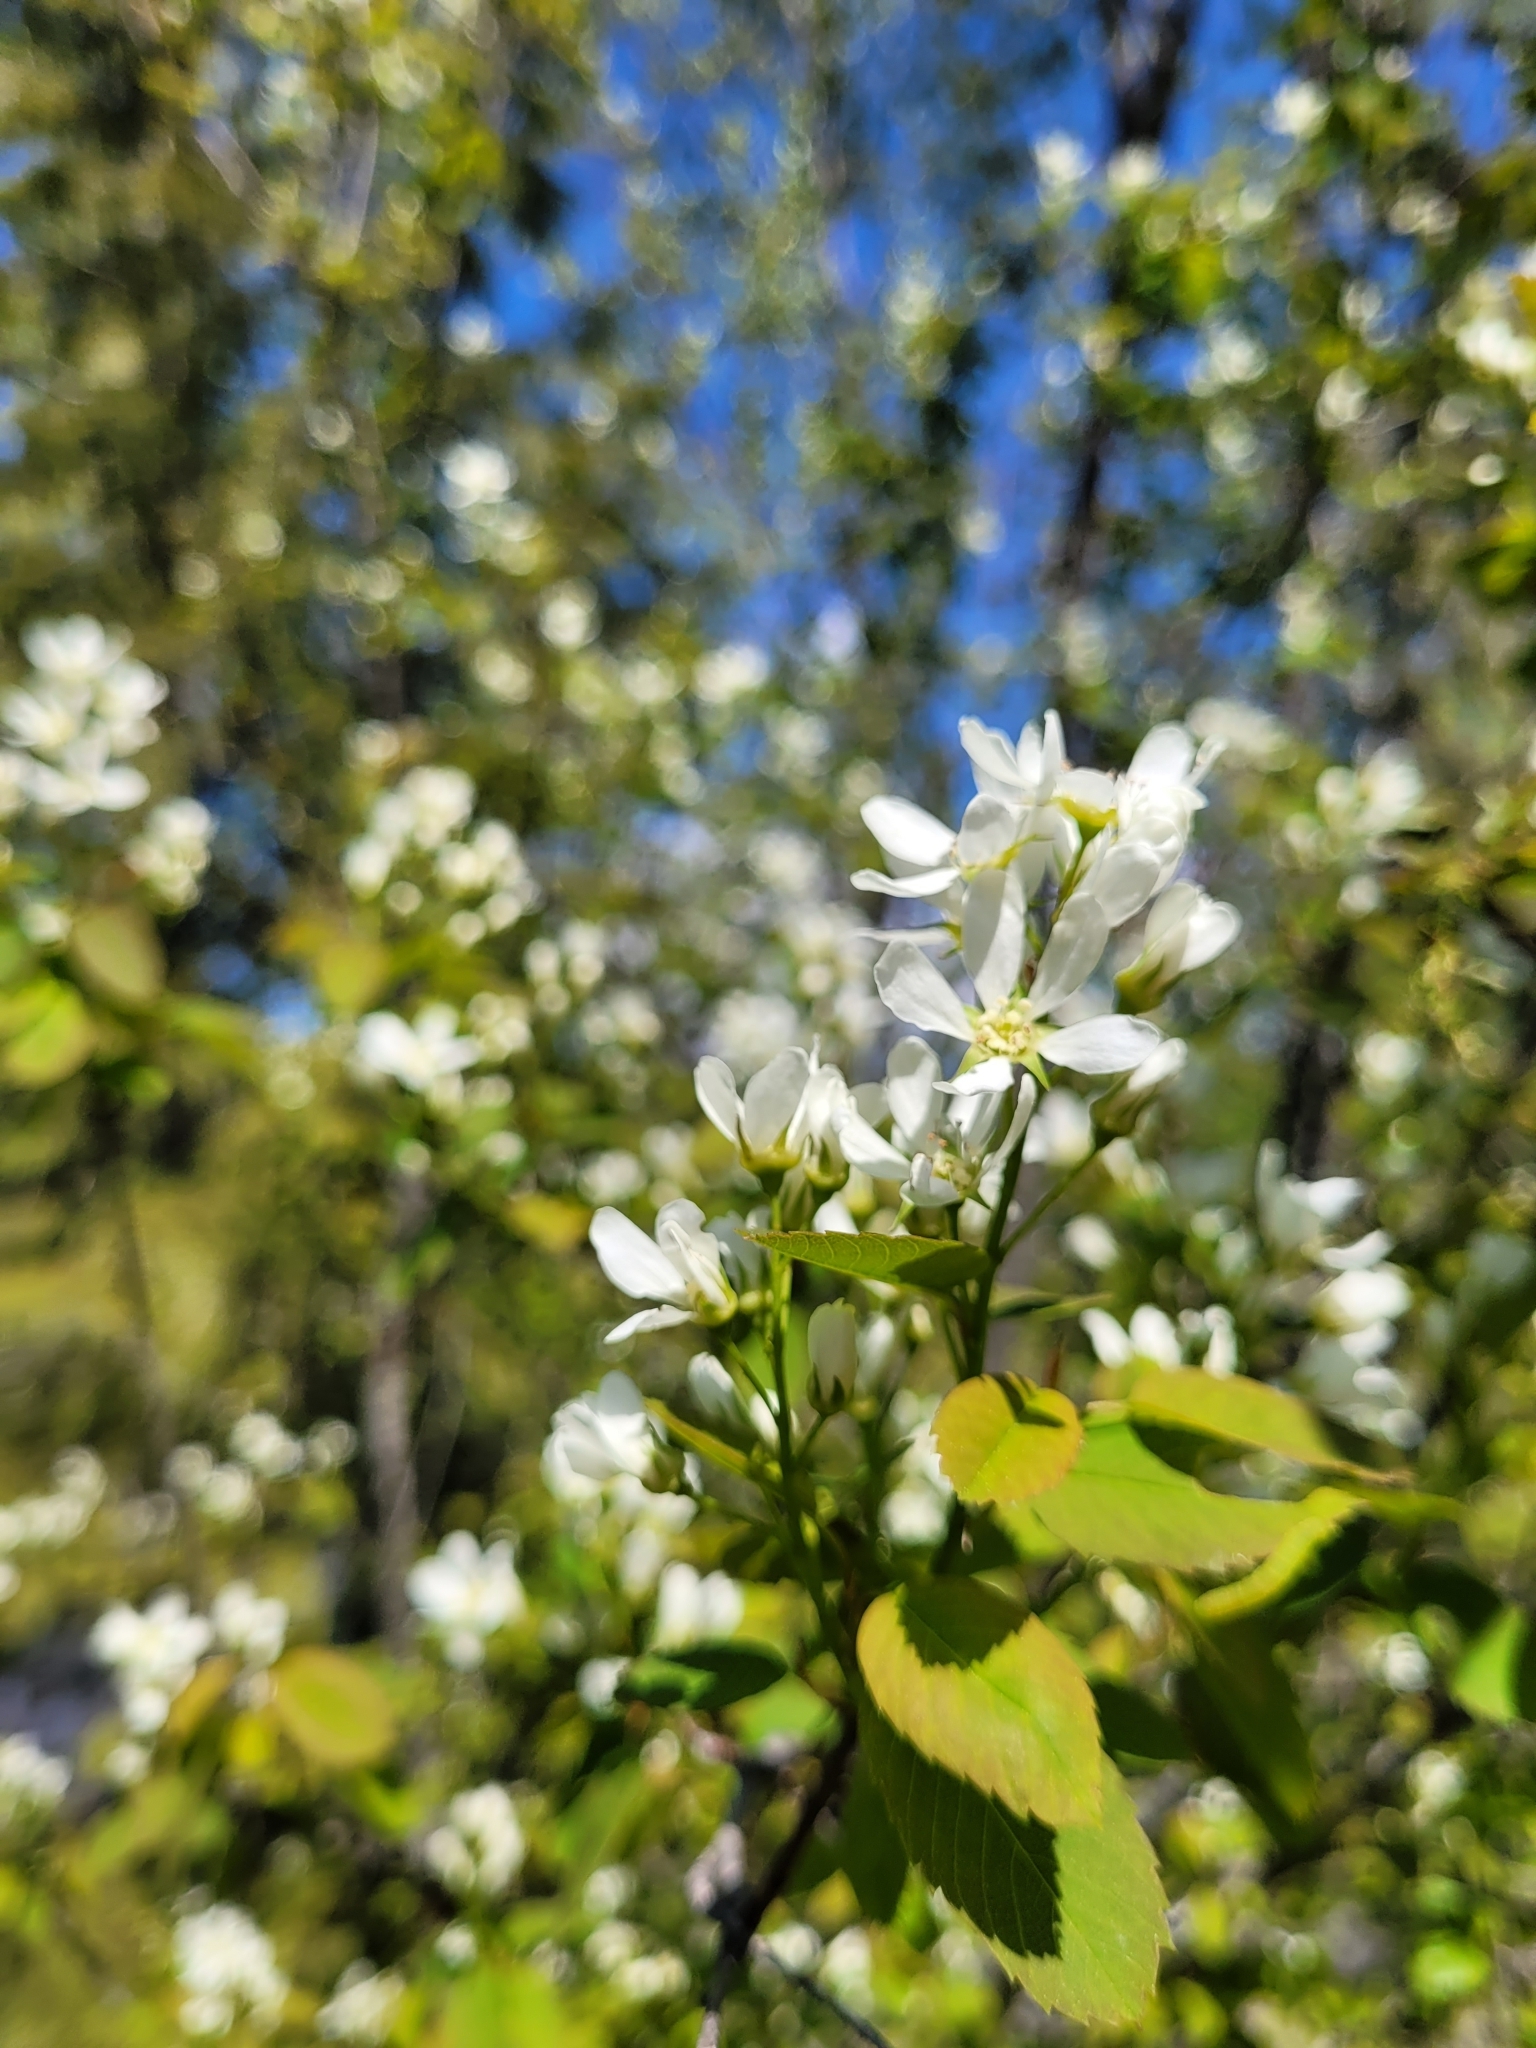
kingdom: Plantae
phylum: Tracheophyta
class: Magnoliopsida
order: Rosales
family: Rosaceae
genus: Amelanchier
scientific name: Amelanchier alnifolia
